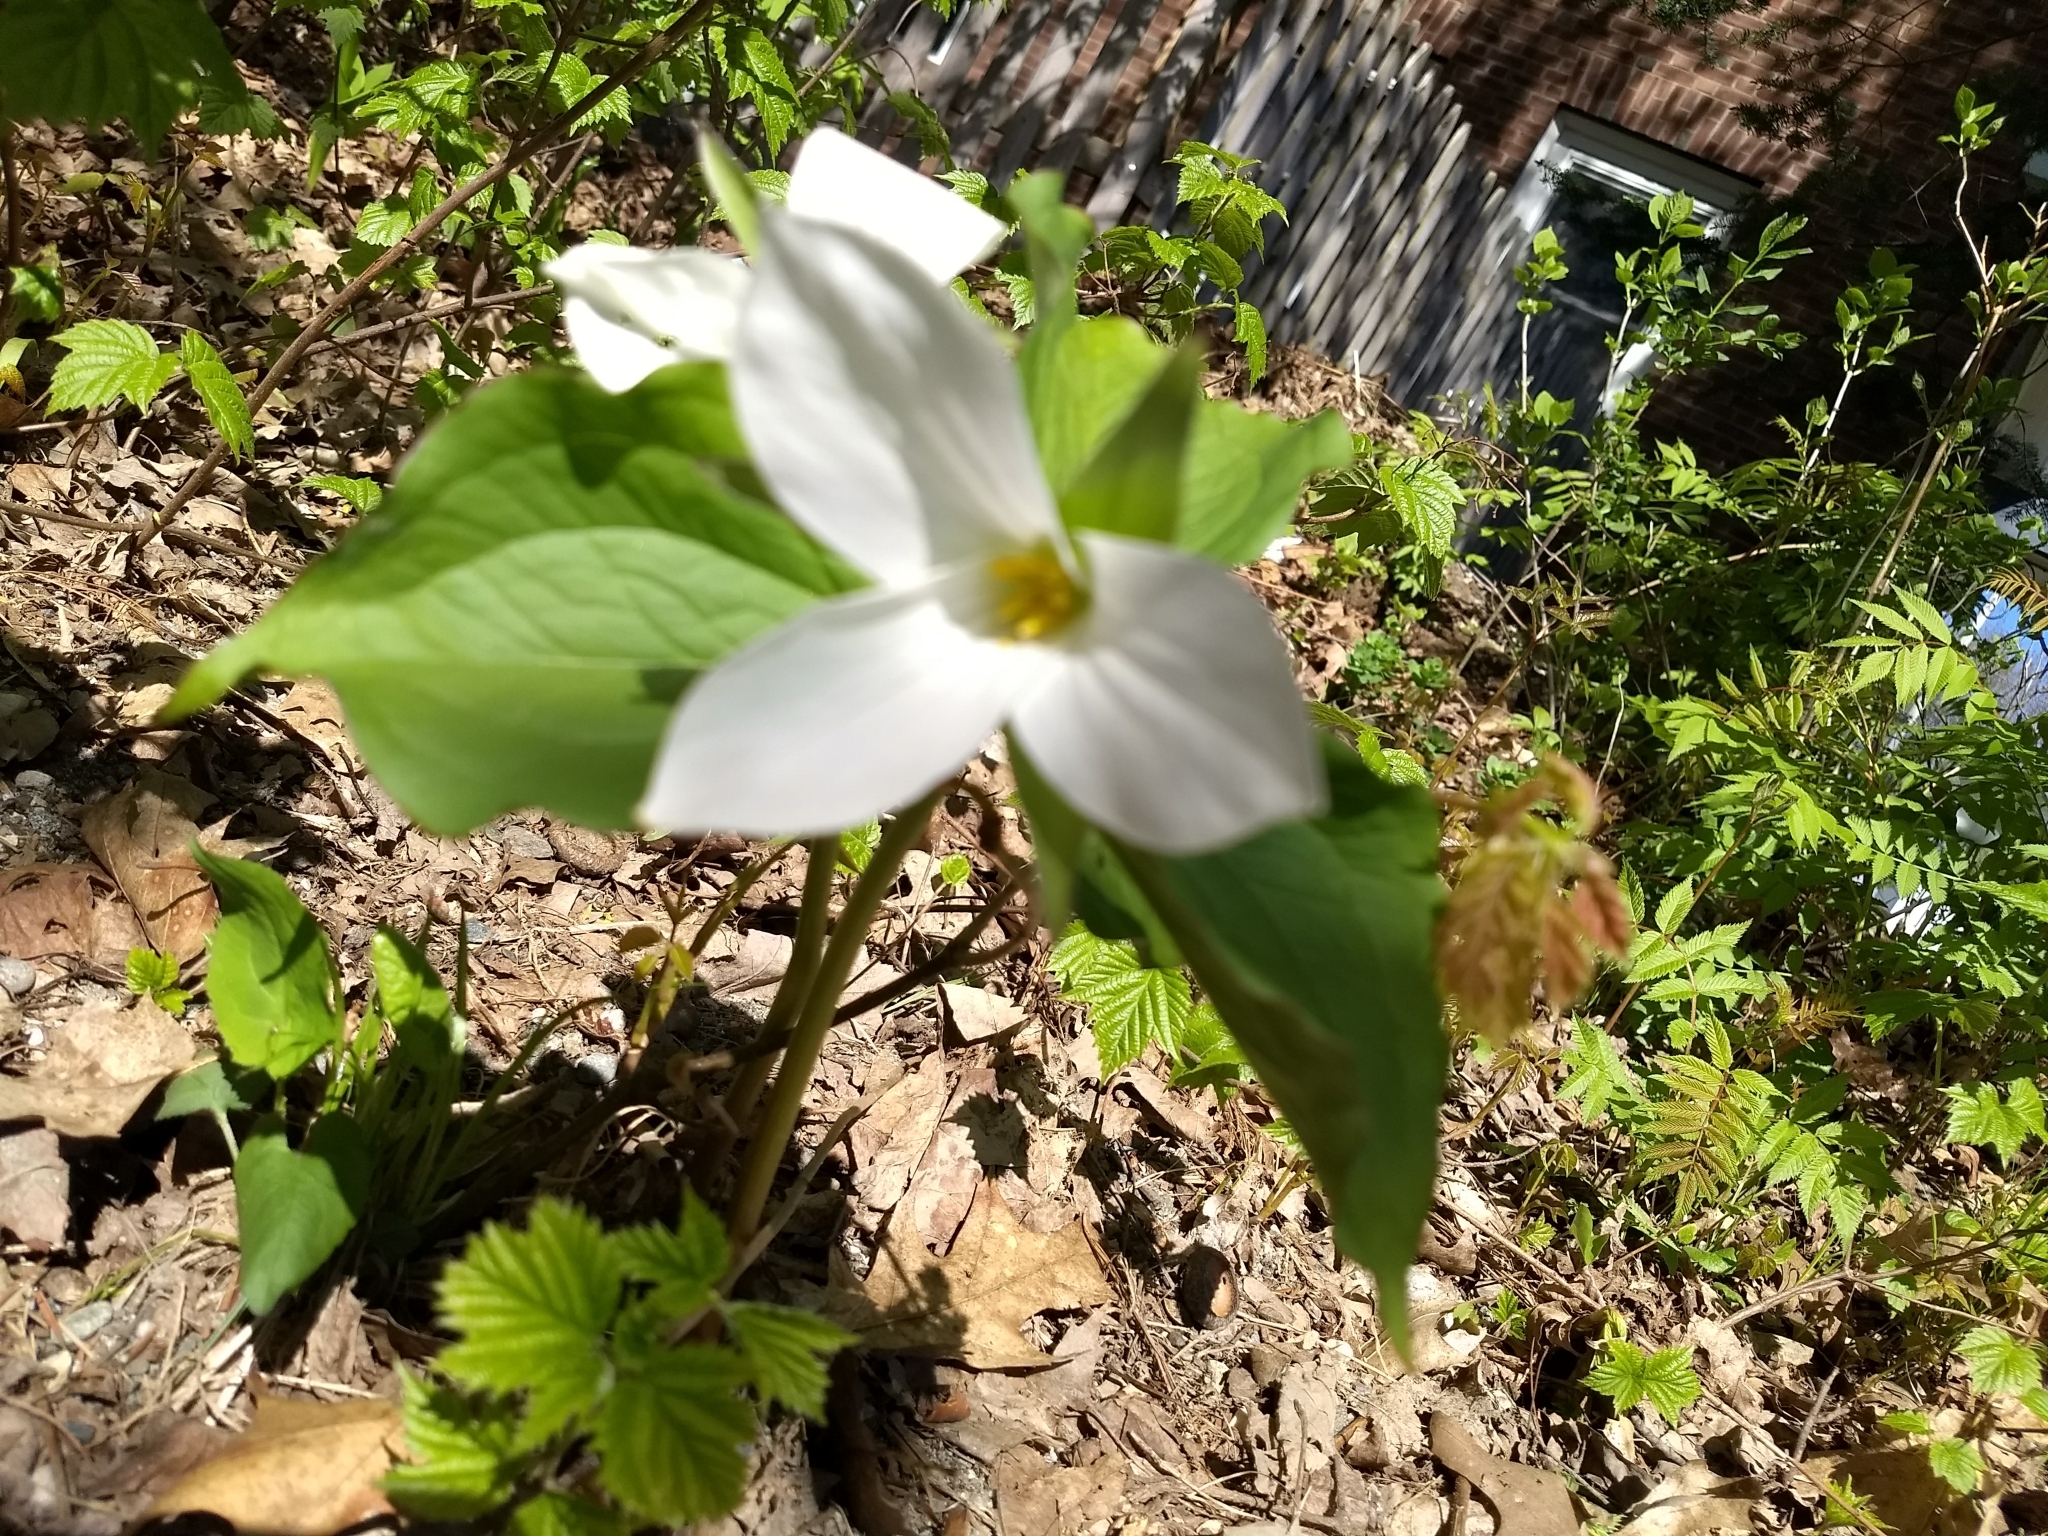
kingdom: Plantae
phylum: Tracheophyta
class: Liliopsida
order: Liliales
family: Melanthiaceae
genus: Trillium
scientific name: Trillium grandiflorum
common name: Great white trillium
